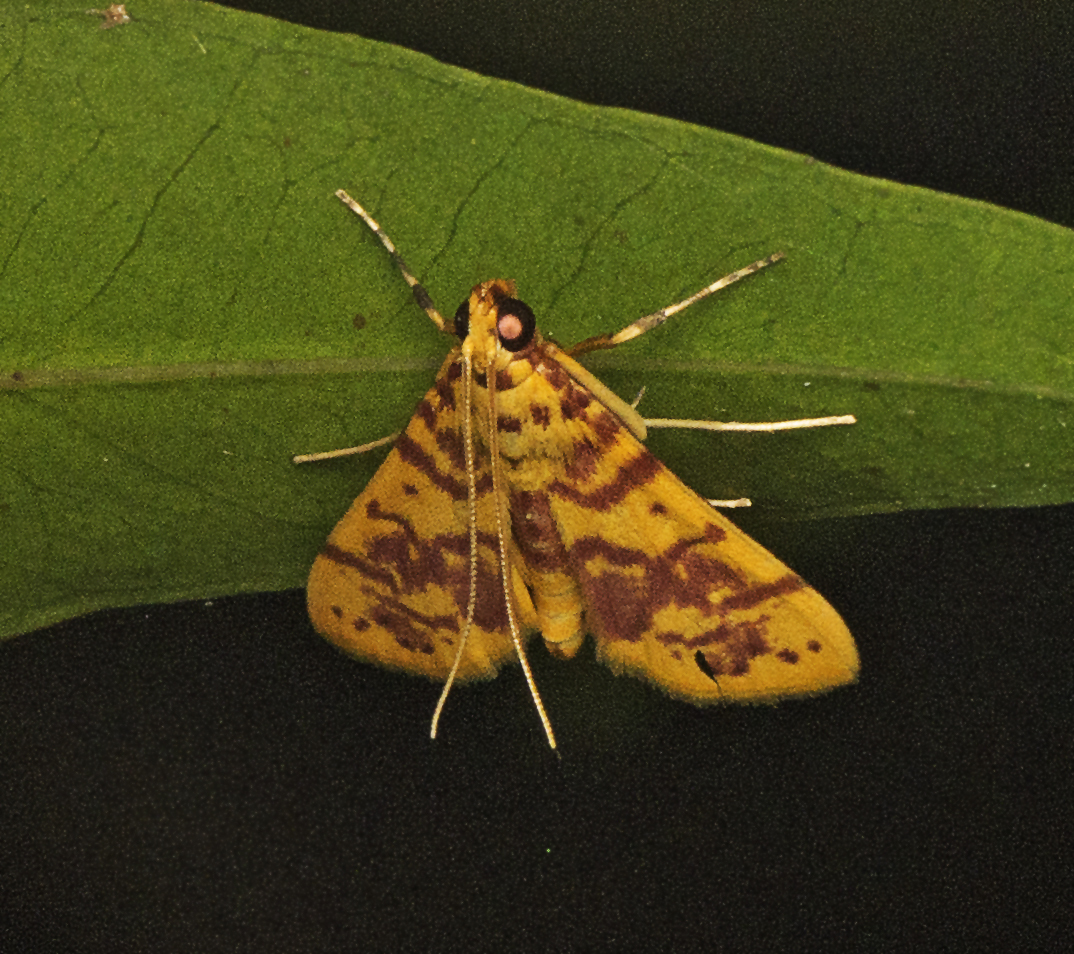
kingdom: Animalia
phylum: Arthropoda
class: Insecta
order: Lepidoptera
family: Crambidae
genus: Conogethes
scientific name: Conogethes haemactalis
